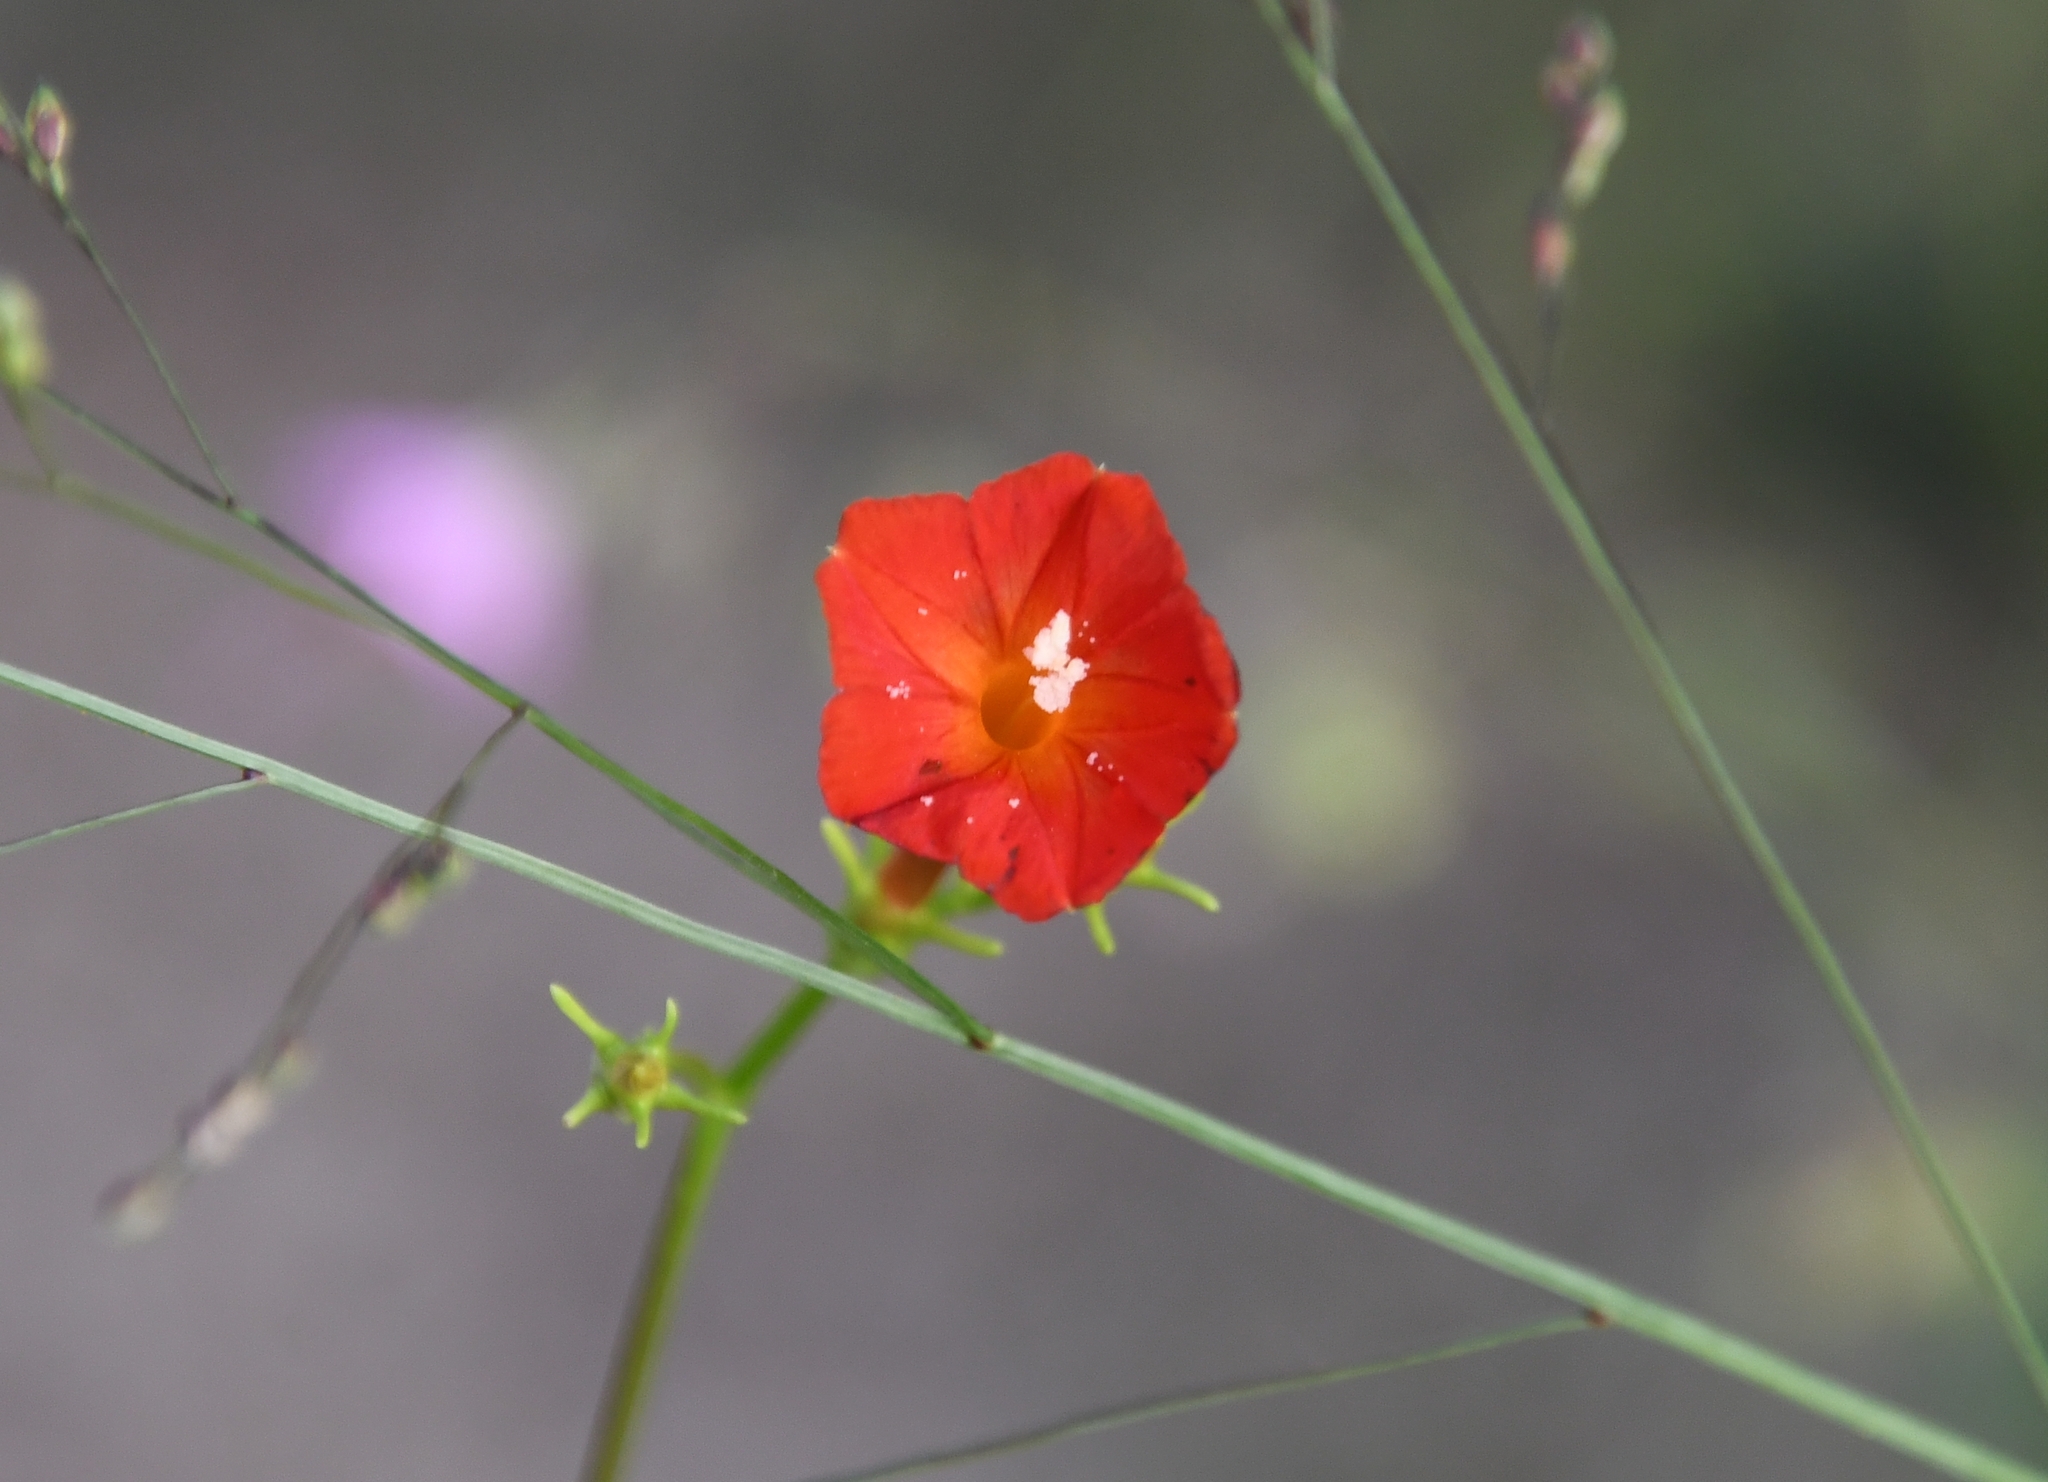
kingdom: Plantae
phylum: Tracheophyta
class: Magnoliopsida
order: Solanales
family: Convolvulaceae
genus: Ipomoea
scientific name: Ipomoea cristulata
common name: Trans-pecos morning-glory
